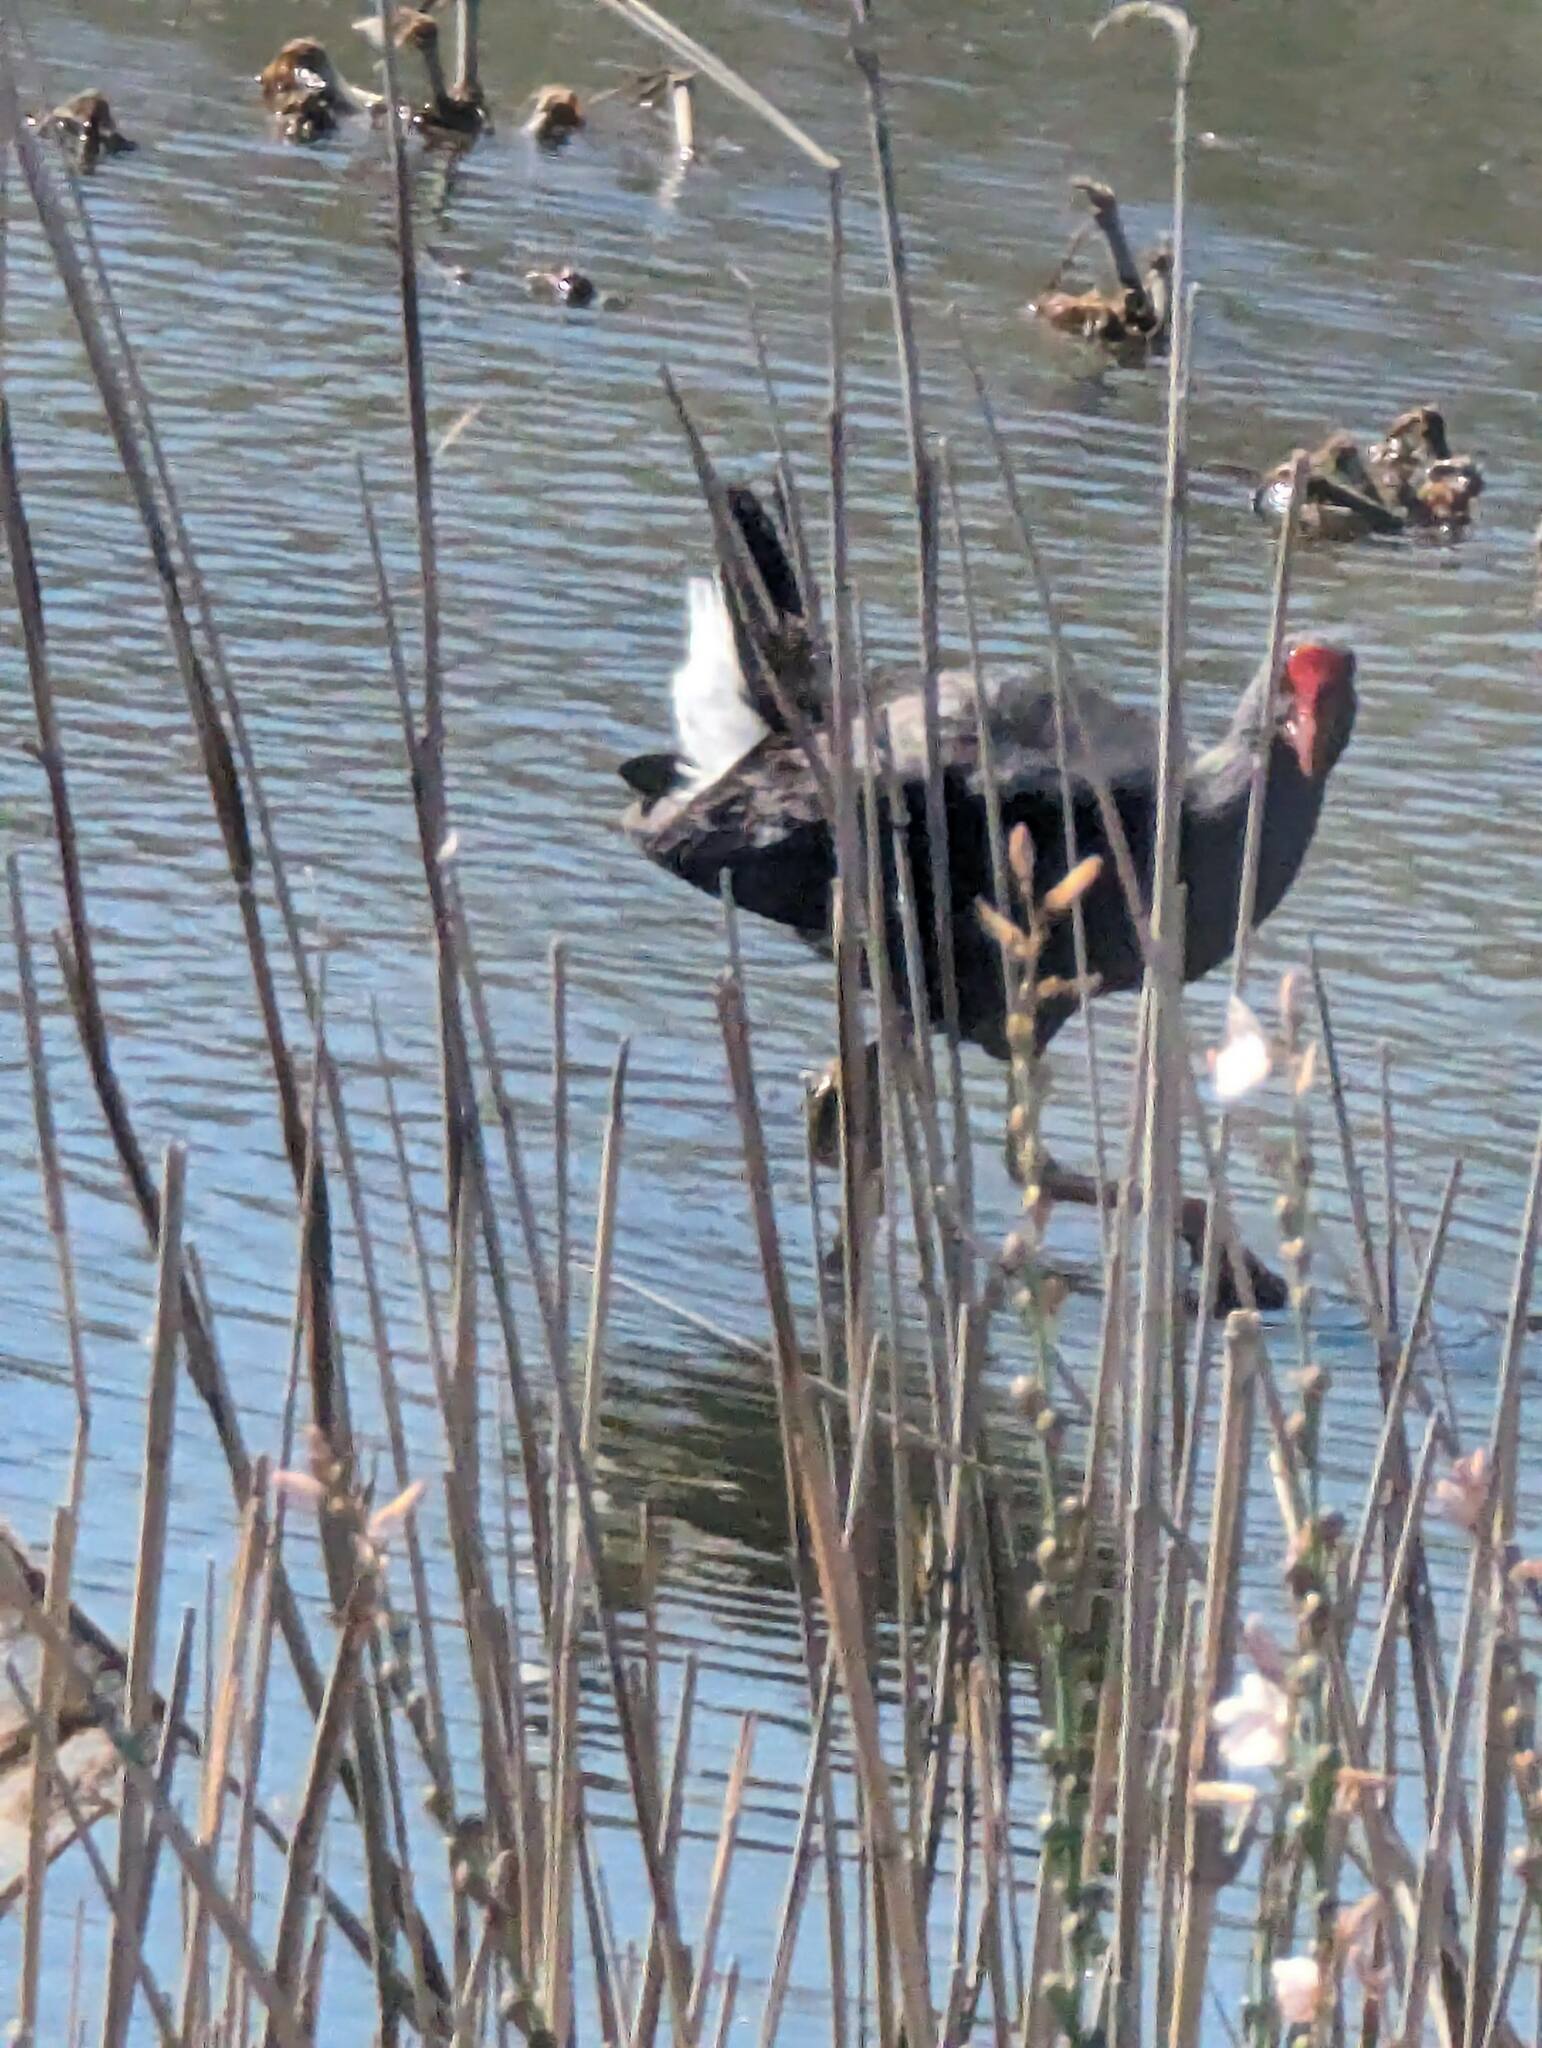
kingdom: Animalia
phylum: Chordata
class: Aves
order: Gruiformes
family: Rallidae
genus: Porphyrio
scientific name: Porphyrio porphyrio
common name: Purple swamphen
